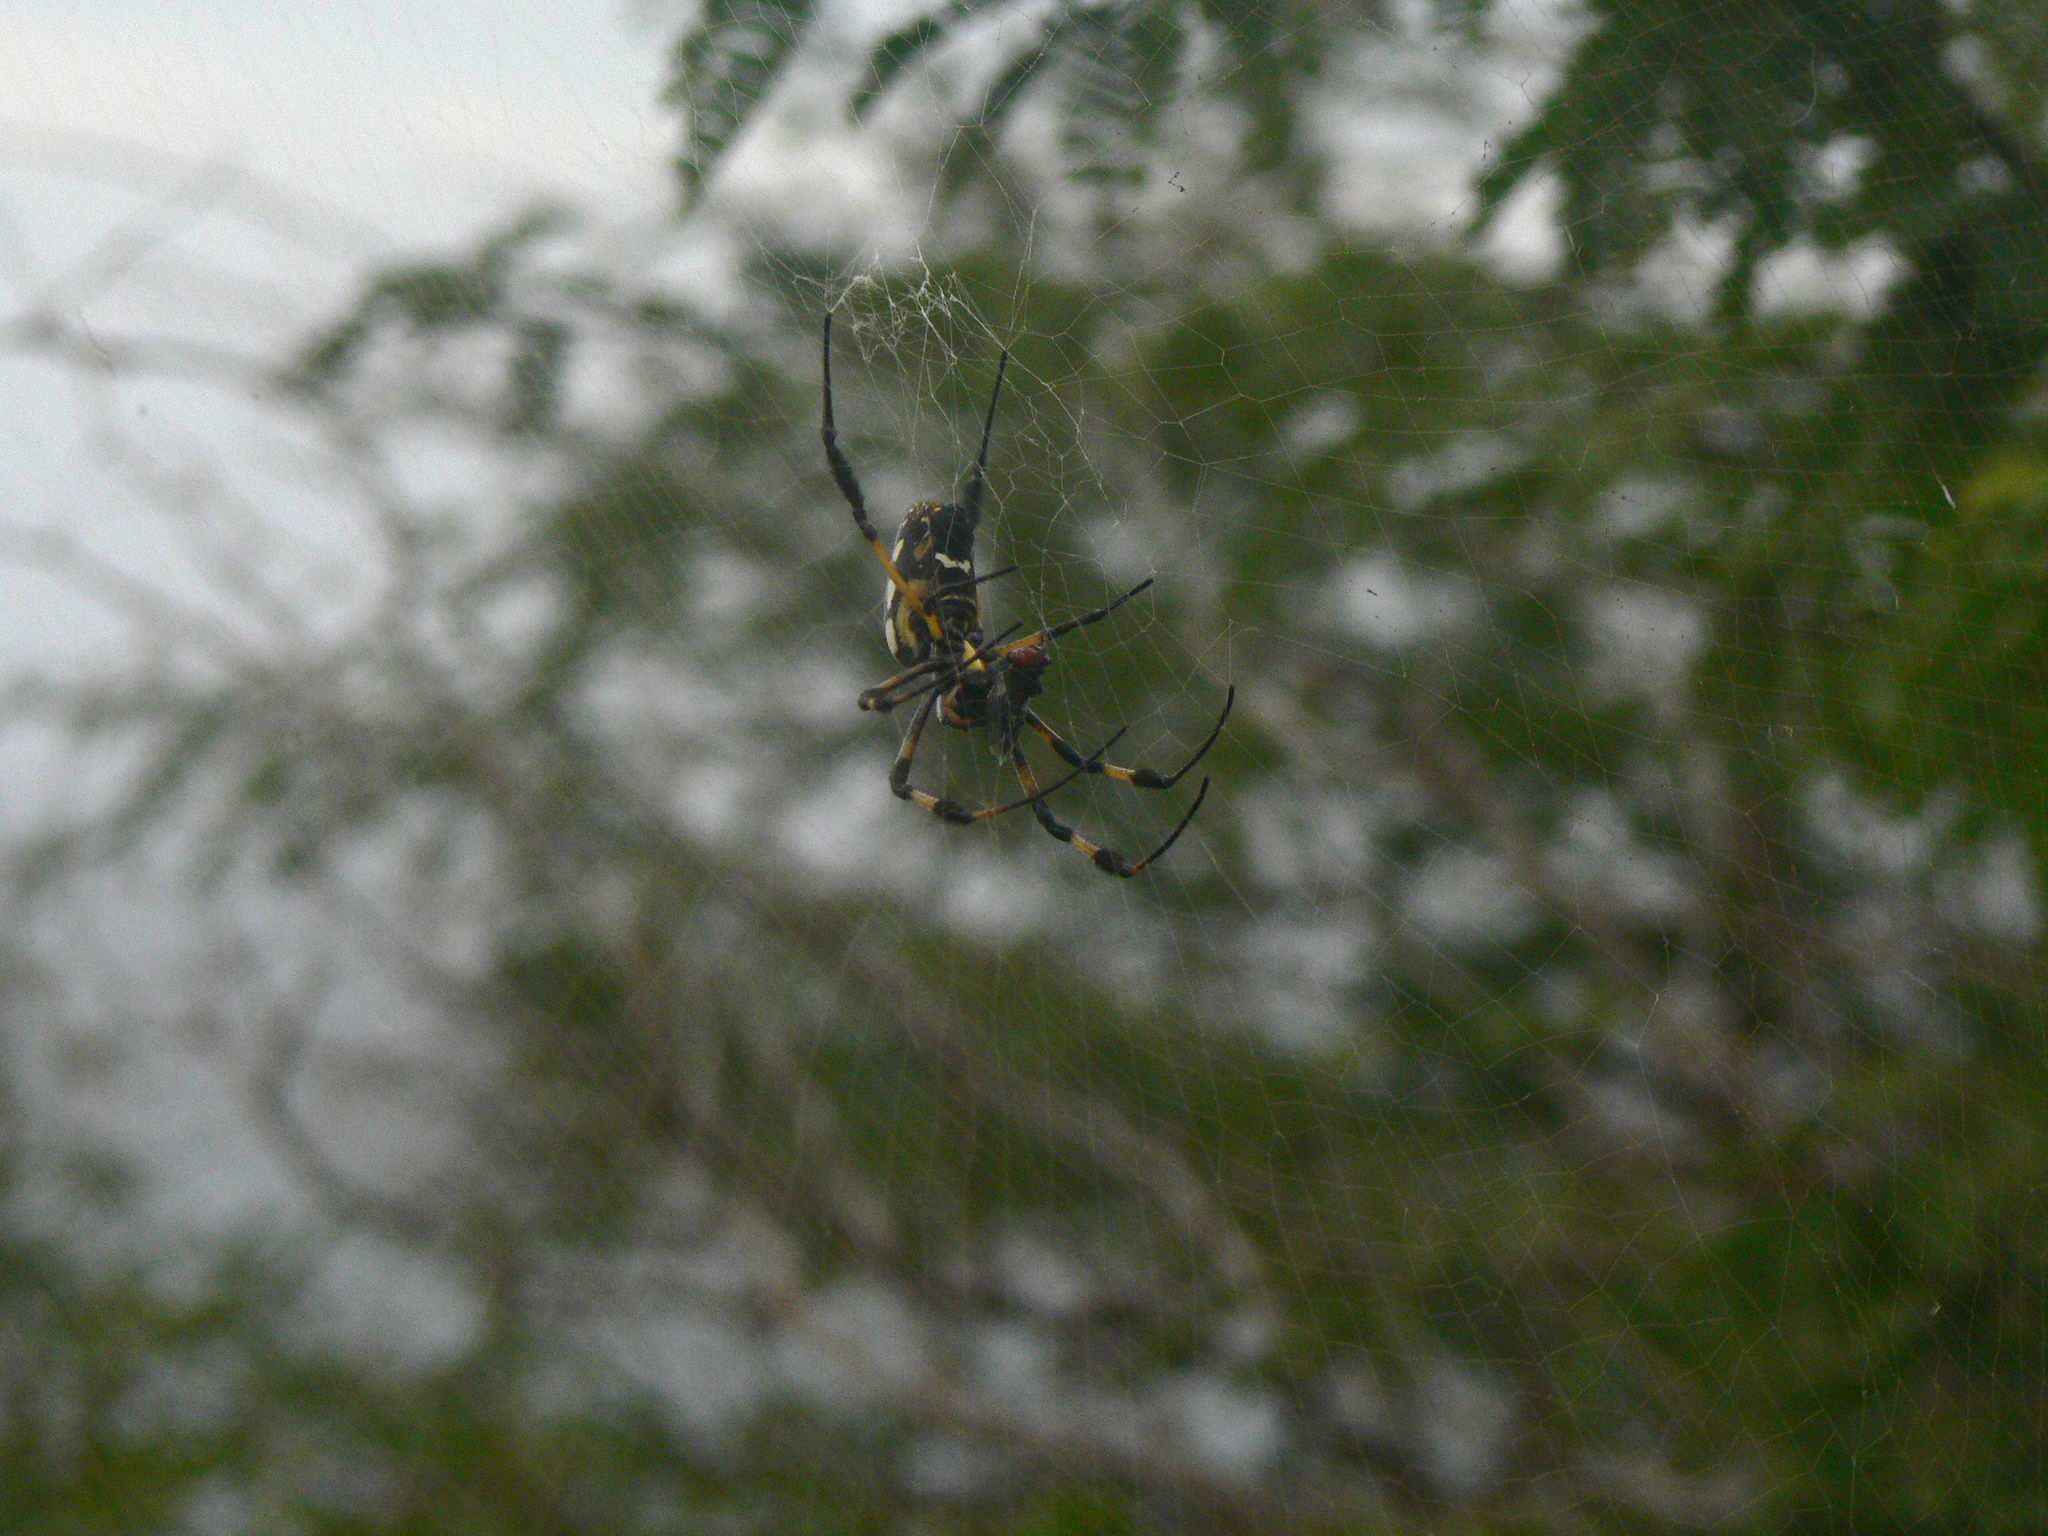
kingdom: Animalia
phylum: Arthropoda
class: Arachnida
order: Araneae
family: Araneidae
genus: Trichonephila
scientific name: Trichonephila senegalensis
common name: Banded golden orb weaver
